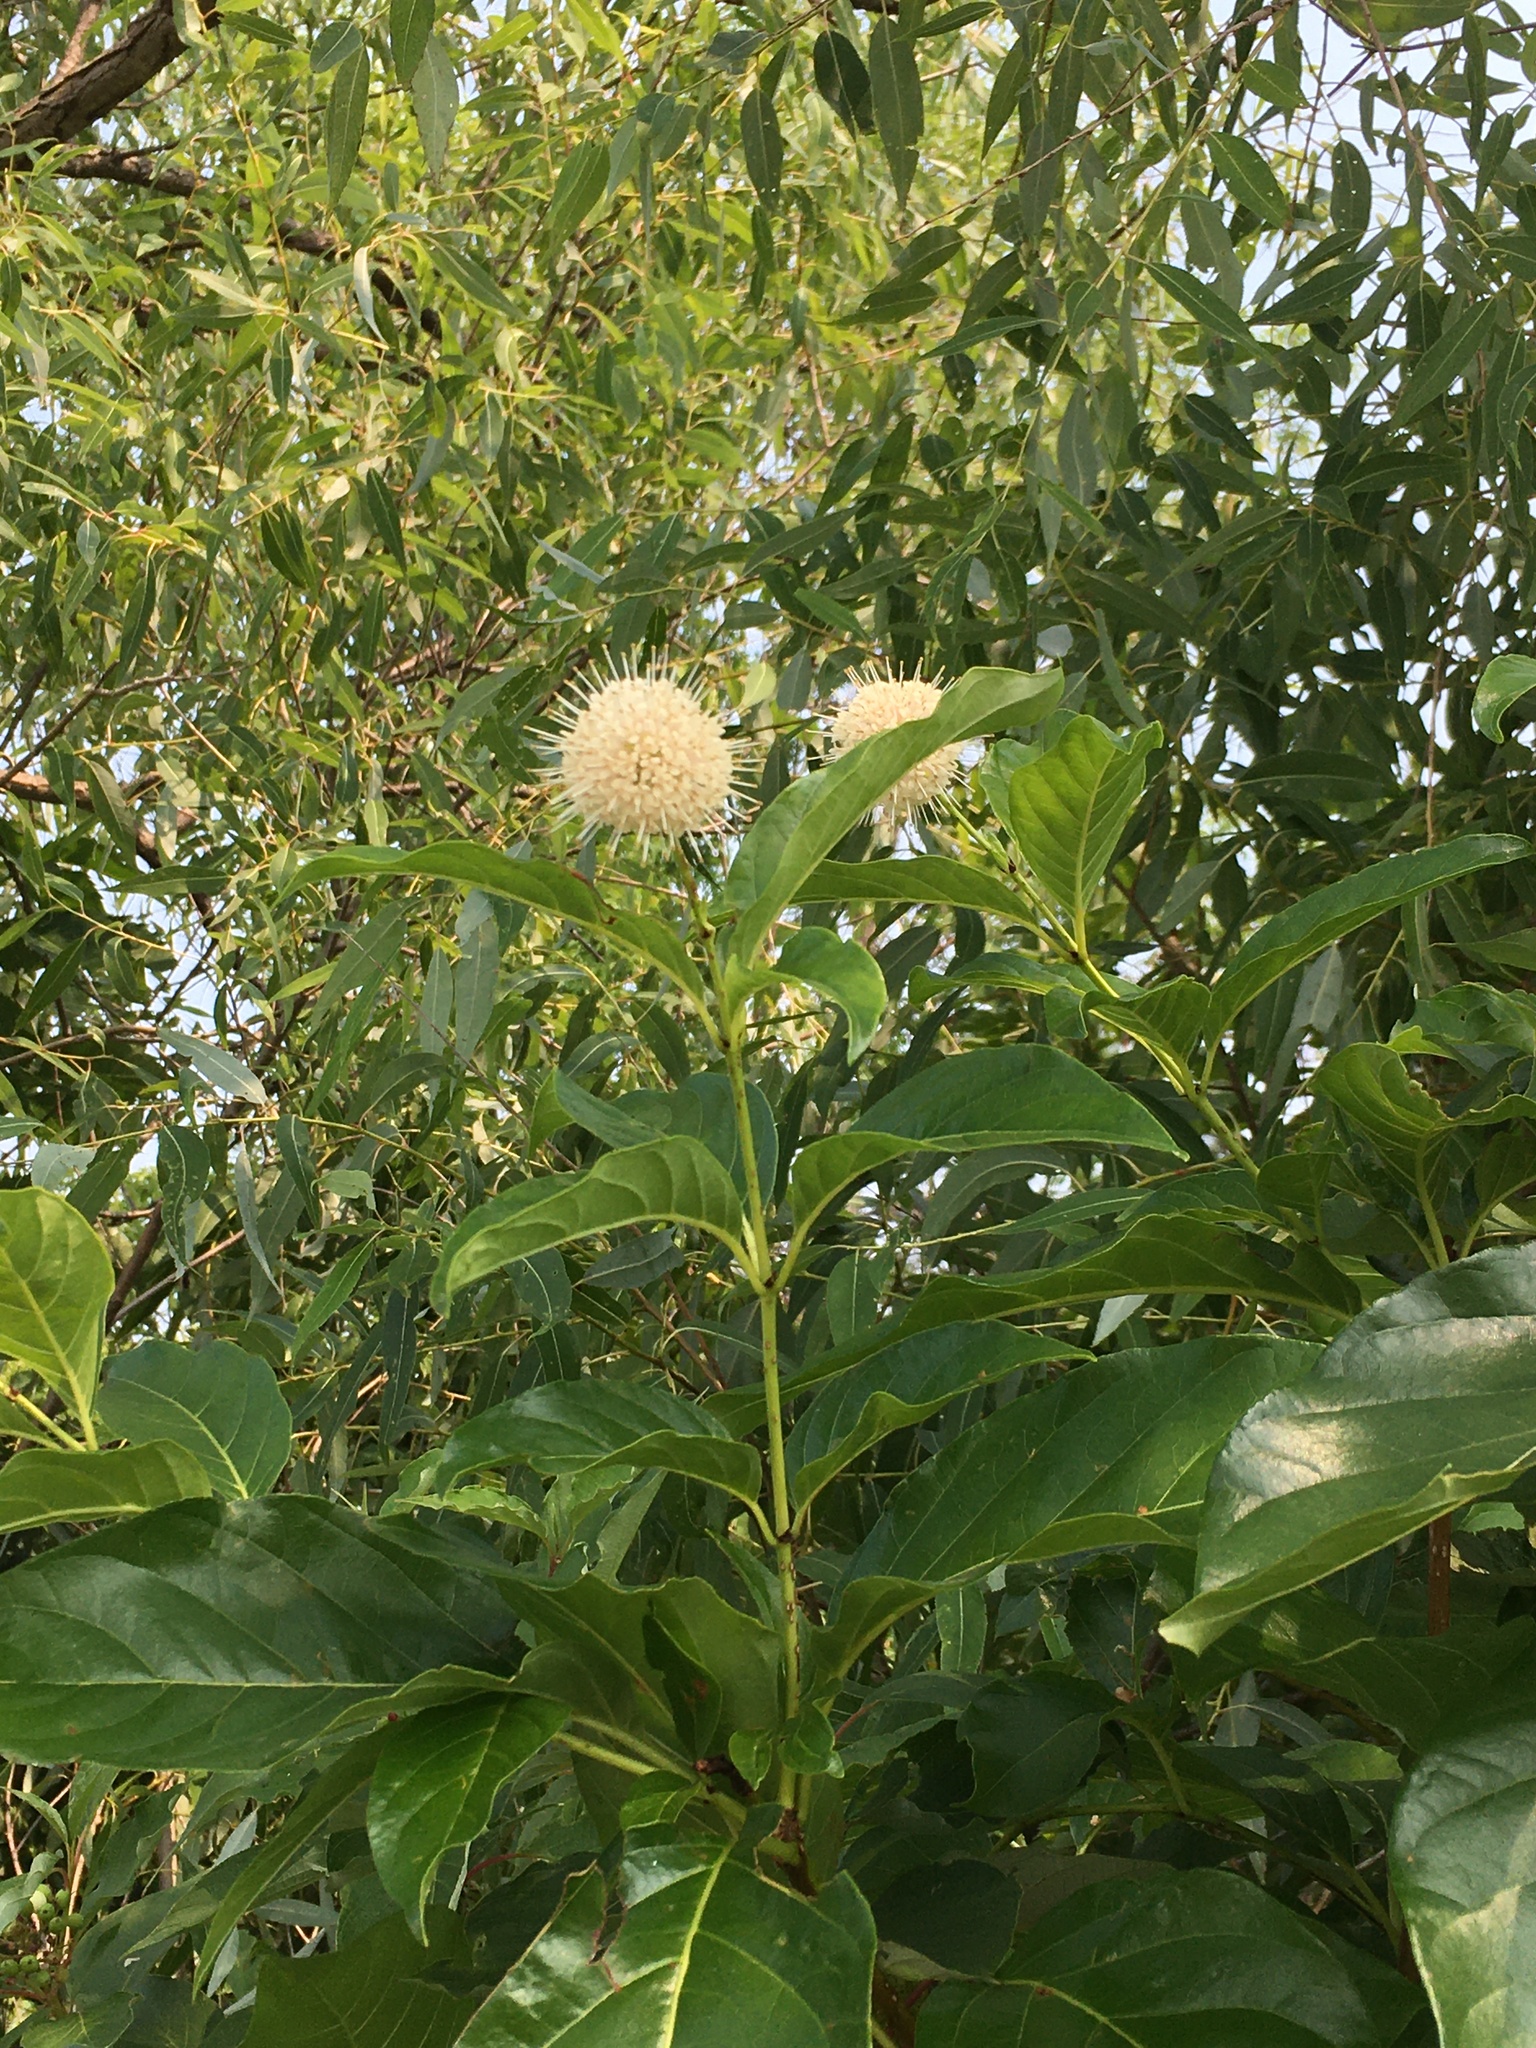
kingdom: Plantae
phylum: Tracheophyta
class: Magnoliopsida
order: Gentianales
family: Rubiaceae
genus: Cephalanthus
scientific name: Cephalanthus occidentalis
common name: Button-willow
